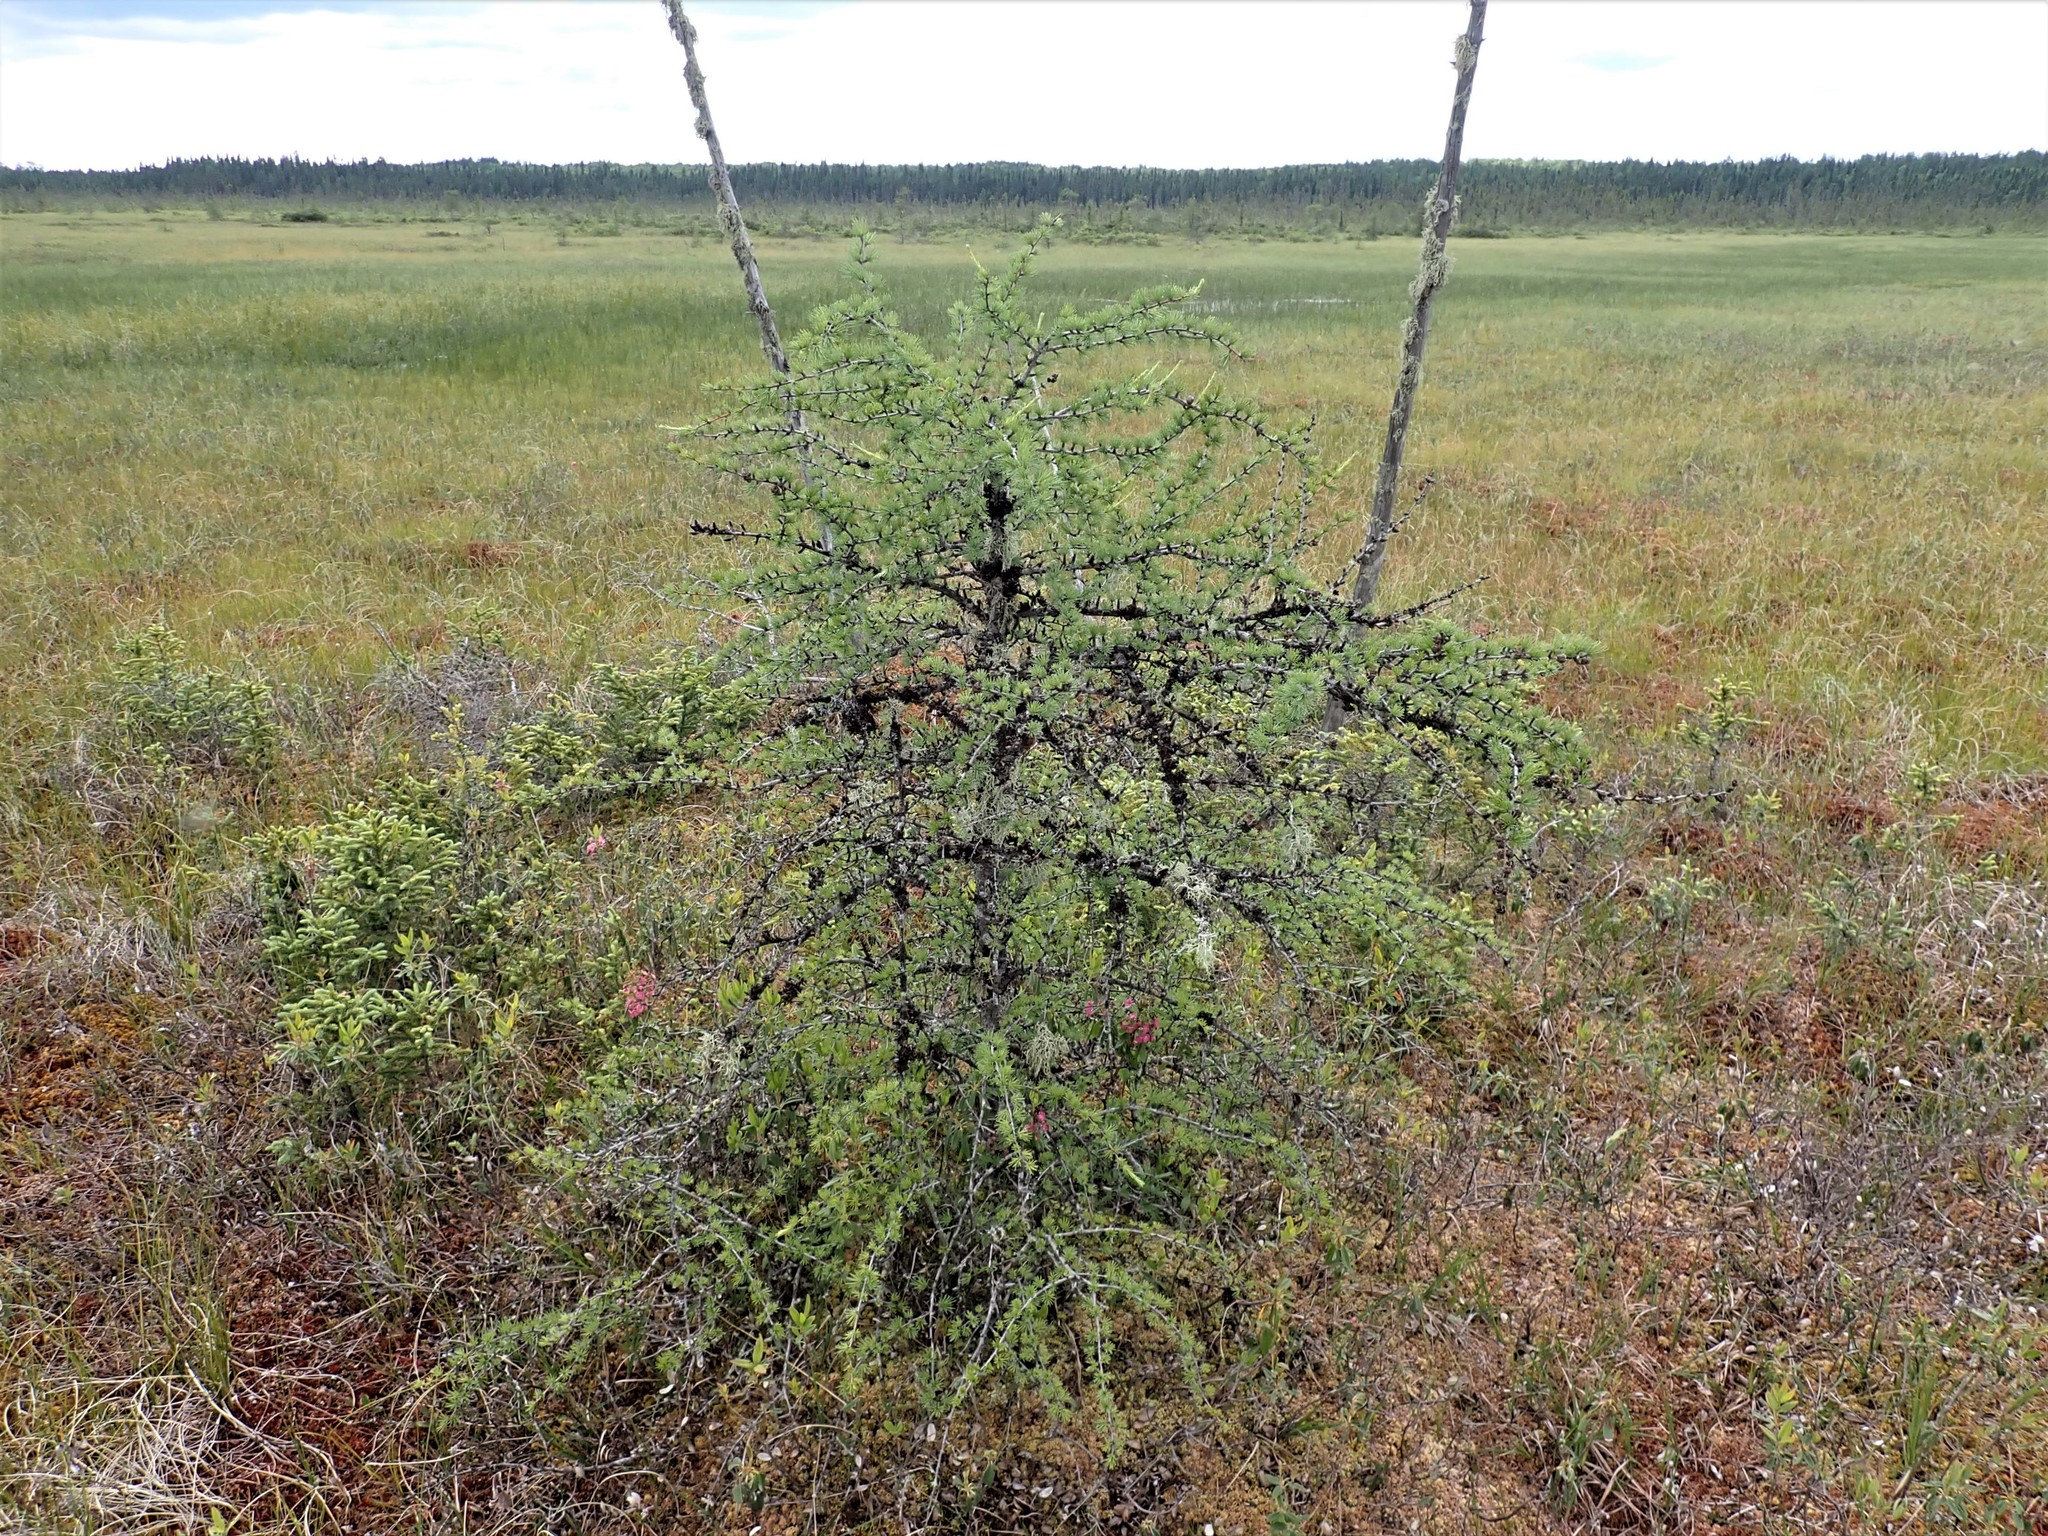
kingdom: Plantae
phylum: Tracheophyta
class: Pinopsida
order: Pinales
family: Pinaceae
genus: Larix
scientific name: Larix laricina
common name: American larch
